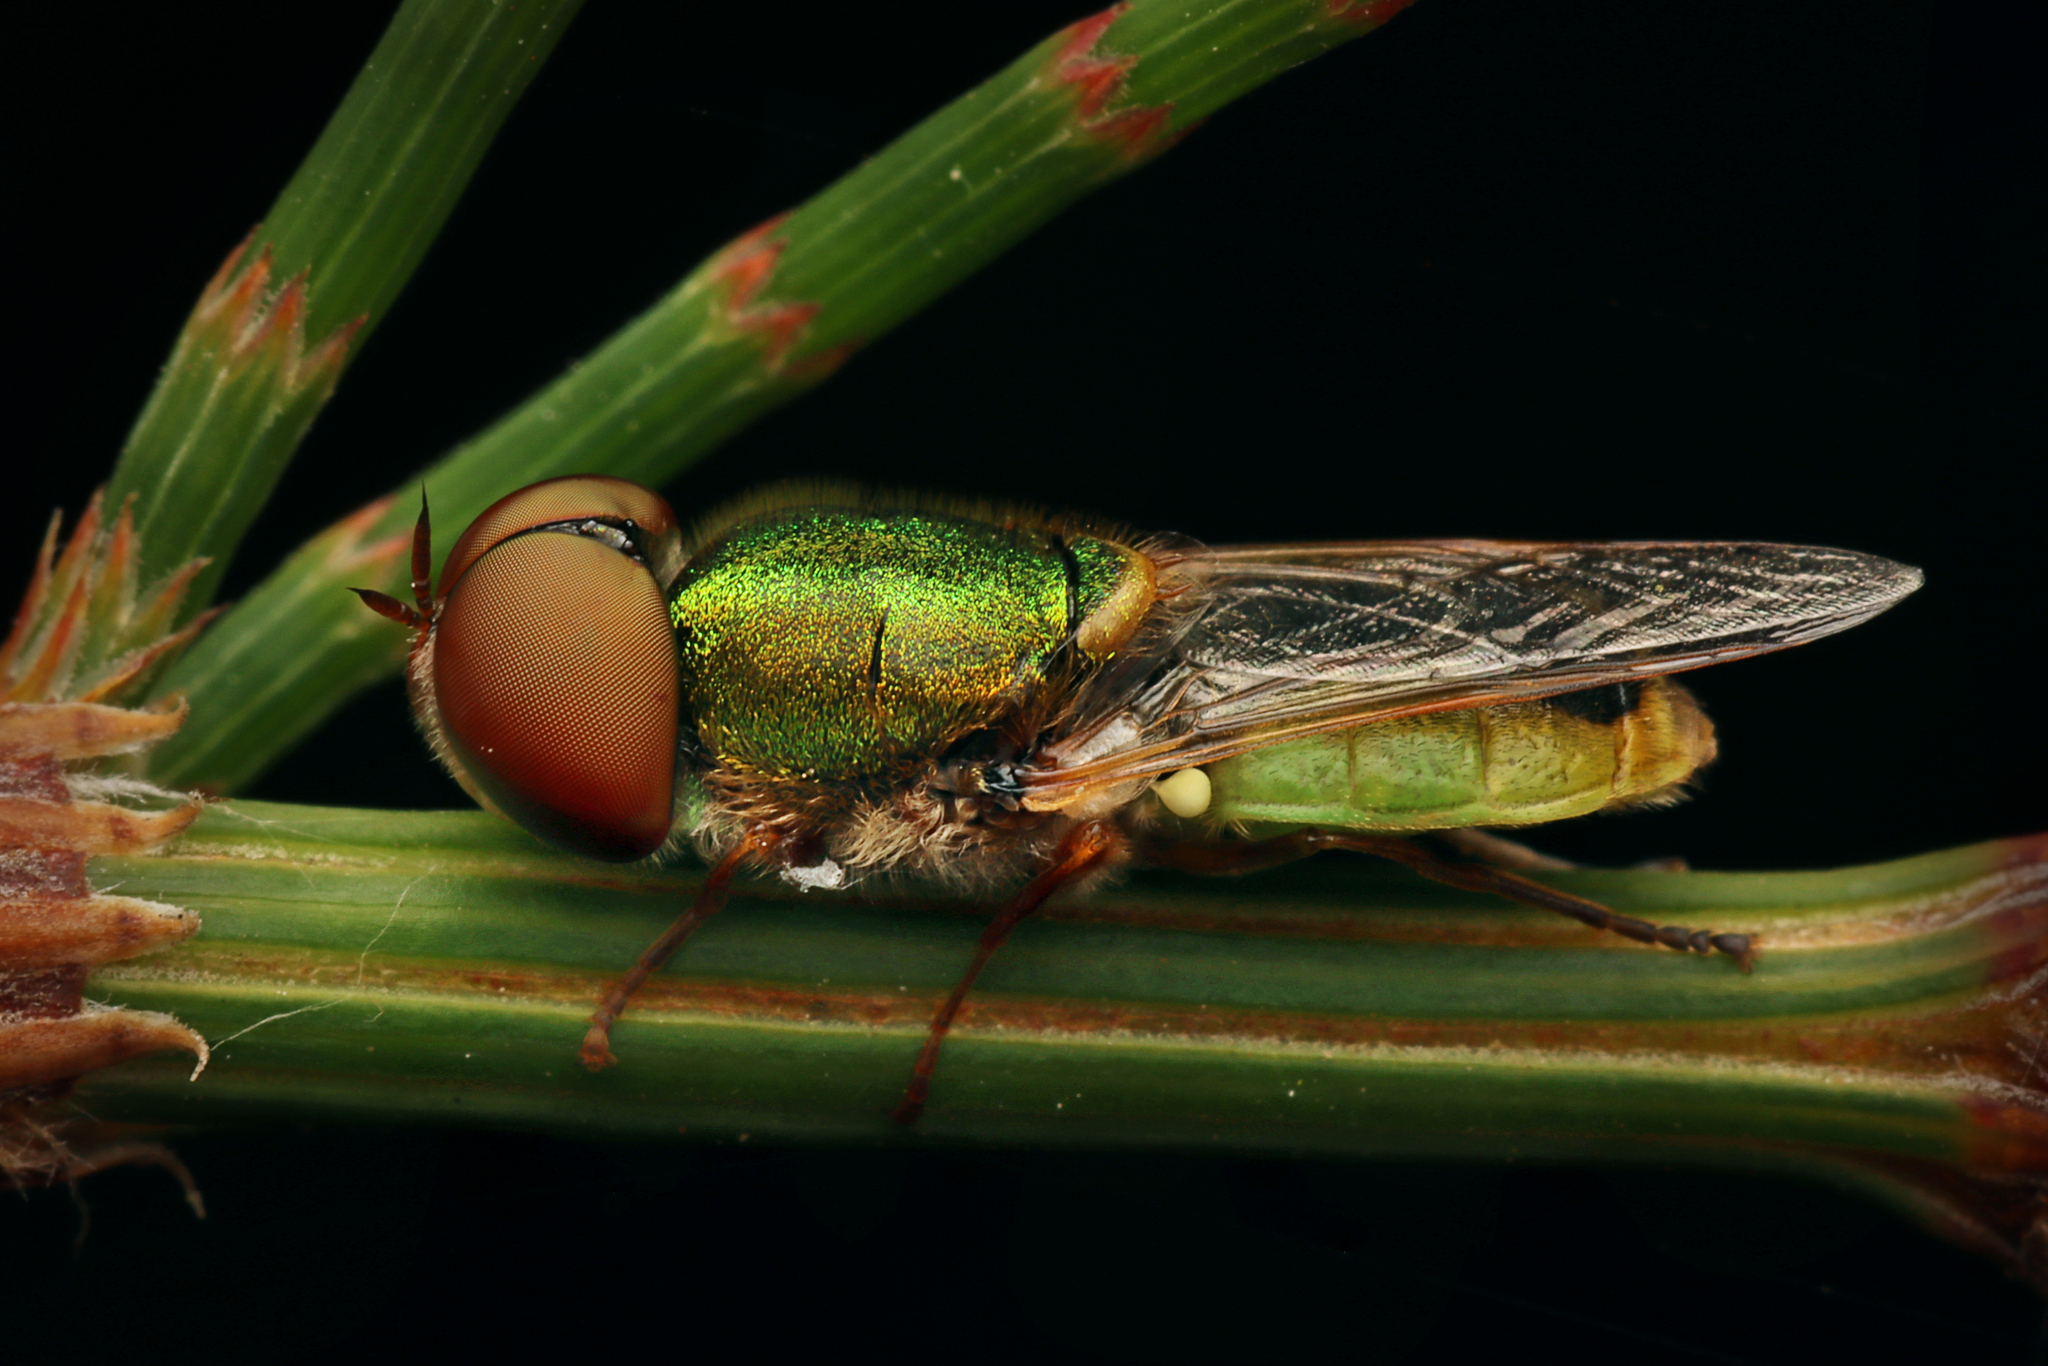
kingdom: Animalia
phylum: Arthropoda
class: Insecta
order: Diptera
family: Stratiomyidae
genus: Odontomyia
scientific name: Odontomyia decipiens
